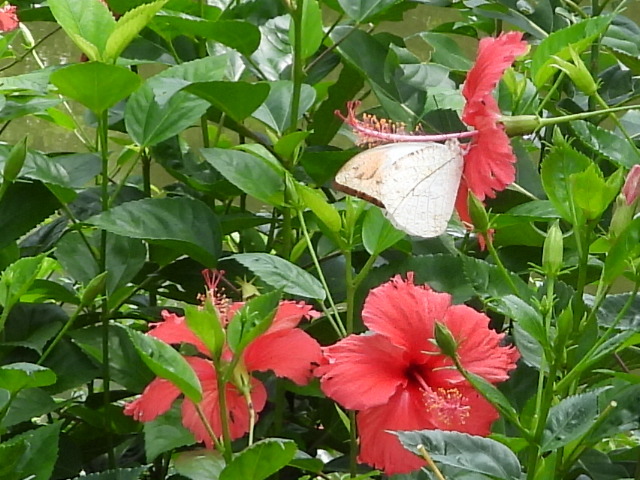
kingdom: Animalia
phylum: Arthropoda
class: Insecta
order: Lepidoptera
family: Pieridae
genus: Hebomoia
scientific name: Hebomoia glaucippe
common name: Great orange tip
